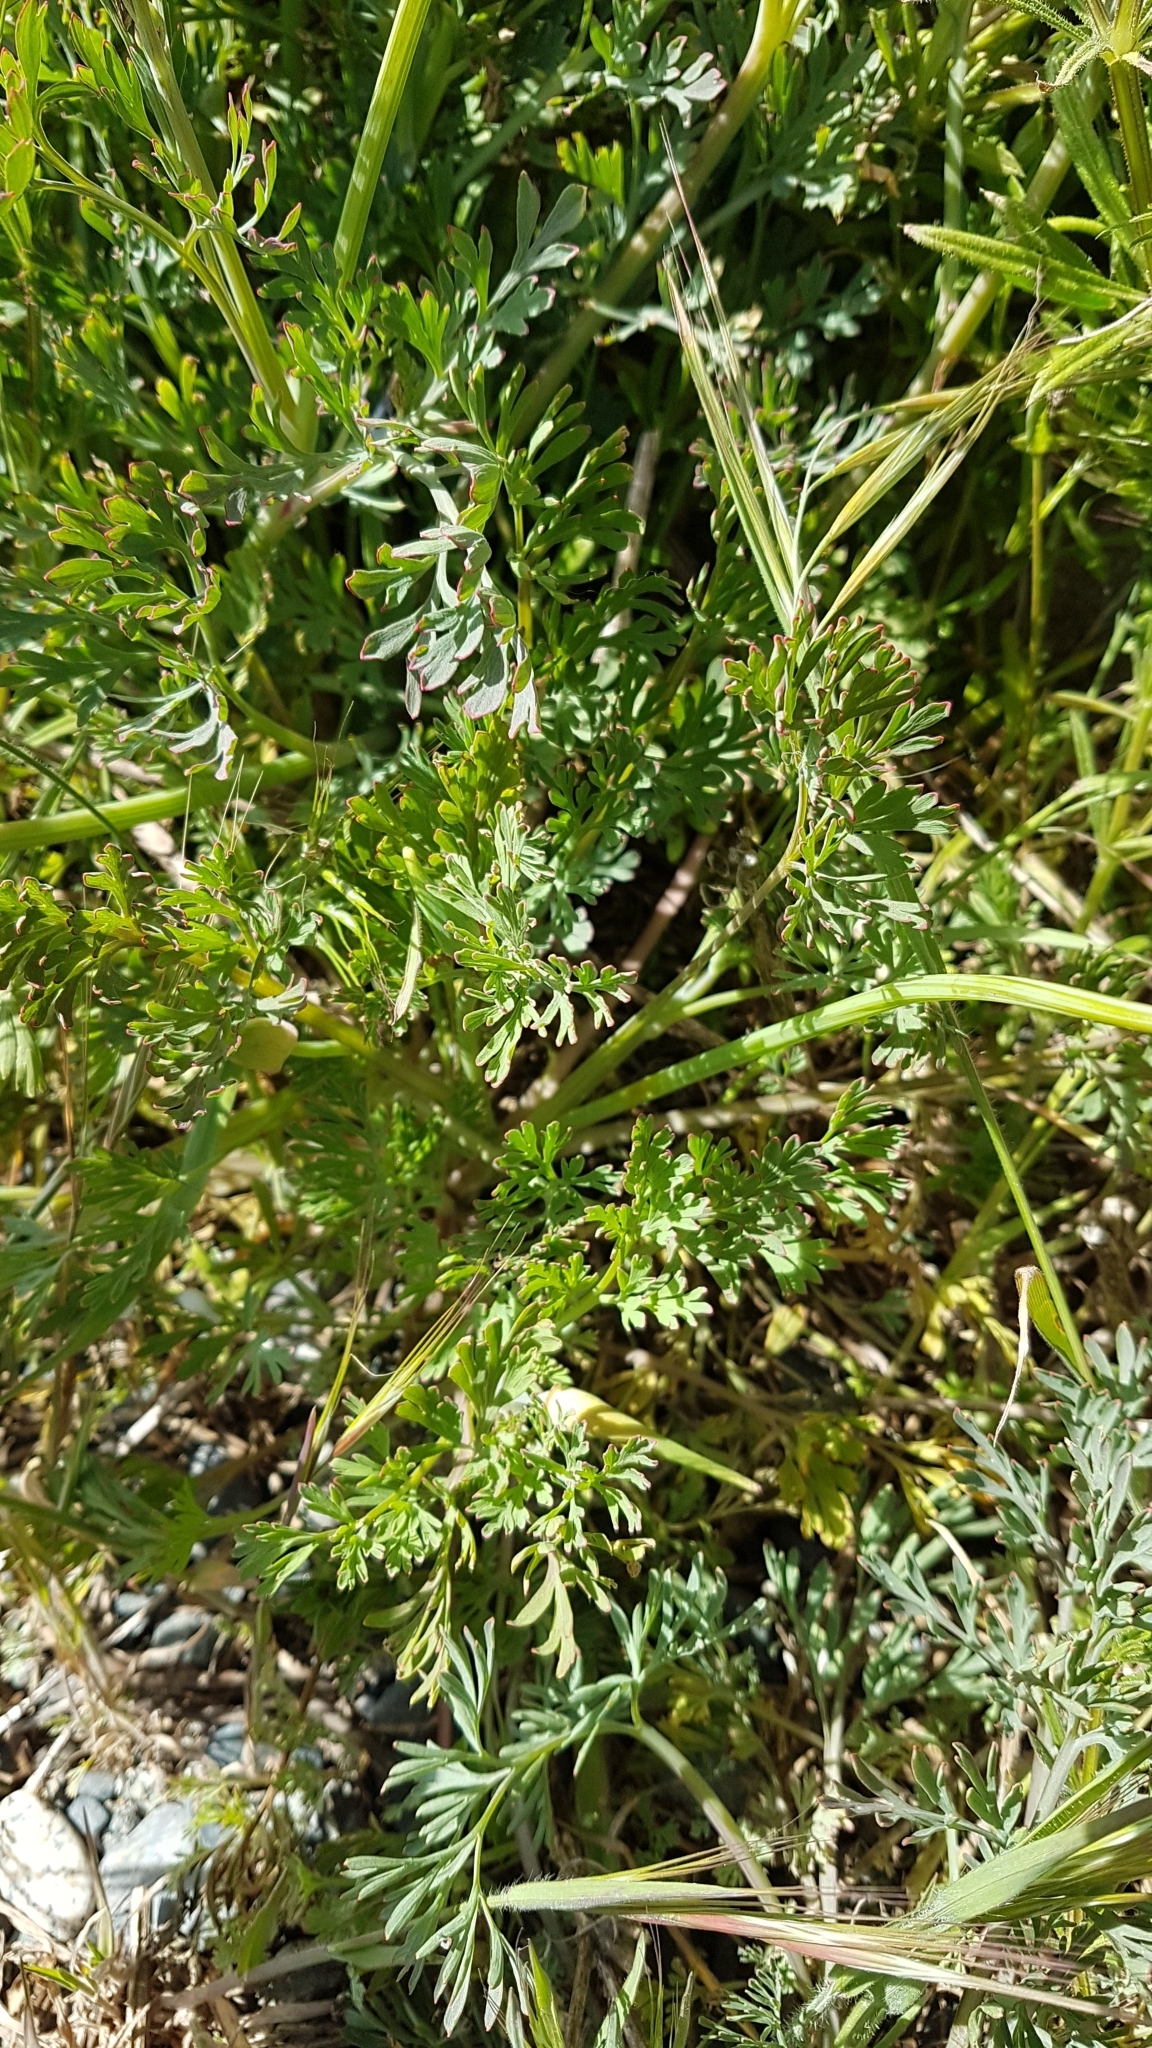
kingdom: Plantae
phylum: Tracheophyta
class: Magnoliopsida
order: Ranunculales
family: Papaveraceae
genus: Eschscholzia
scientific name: Eschscholzia californica
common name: California poppy
